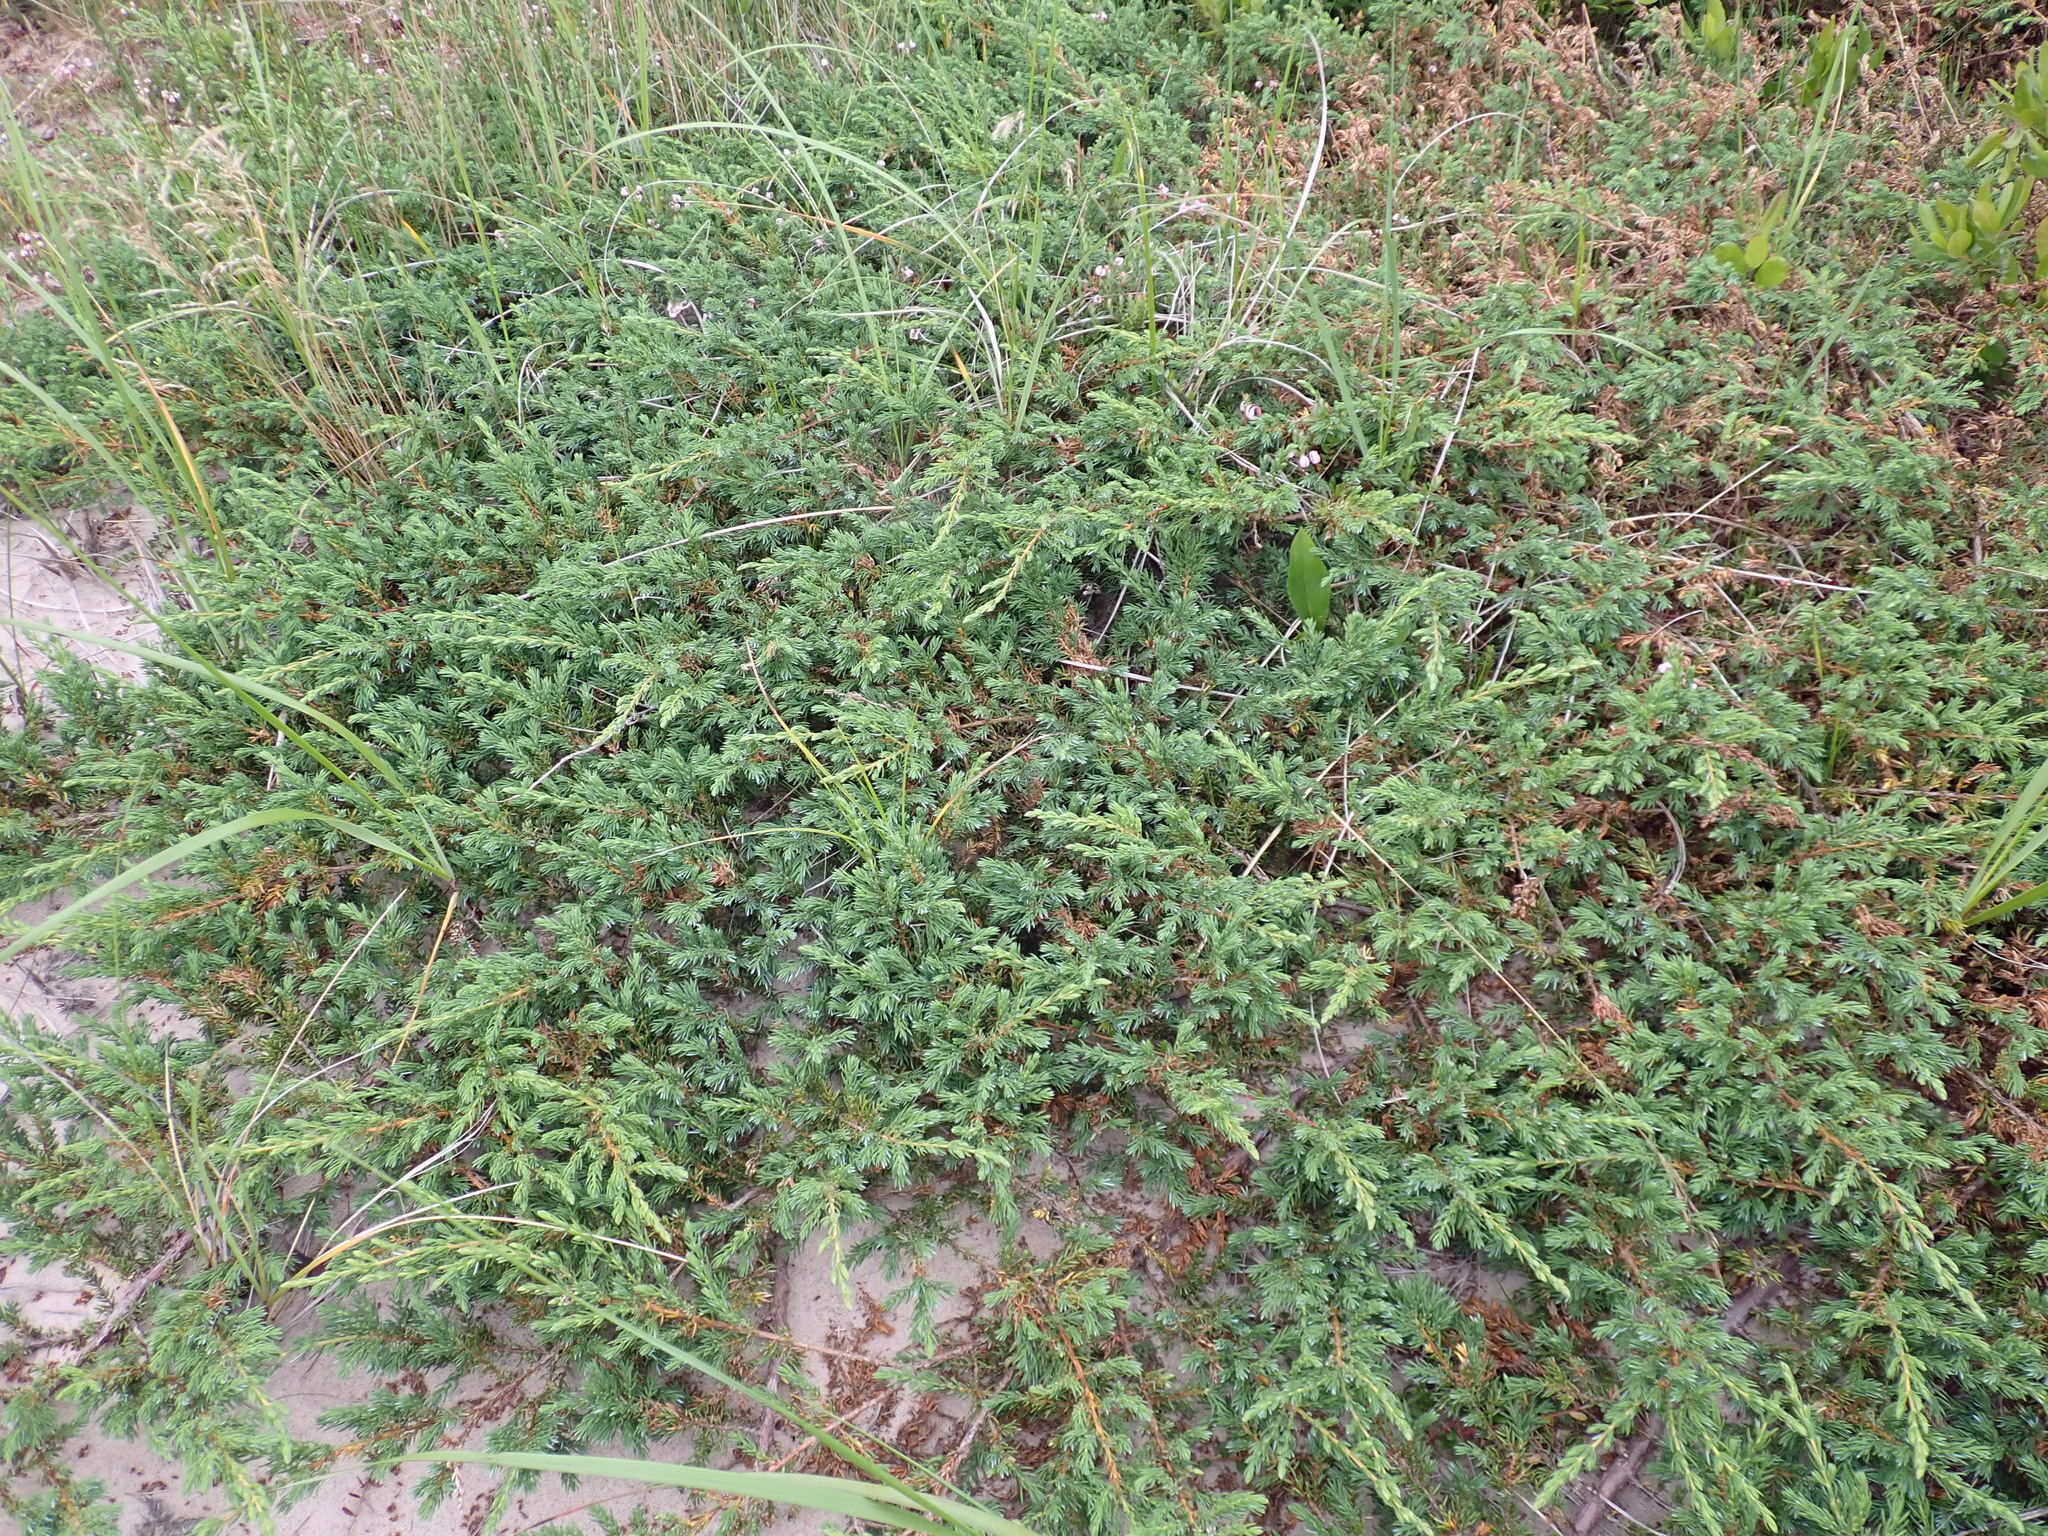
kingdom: Plantae
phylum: Tracheophyta
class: Pinopsida
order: Pinales
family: Cupressaceae
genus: Juniperus
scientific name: Juniperus communis
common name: Common juniper
